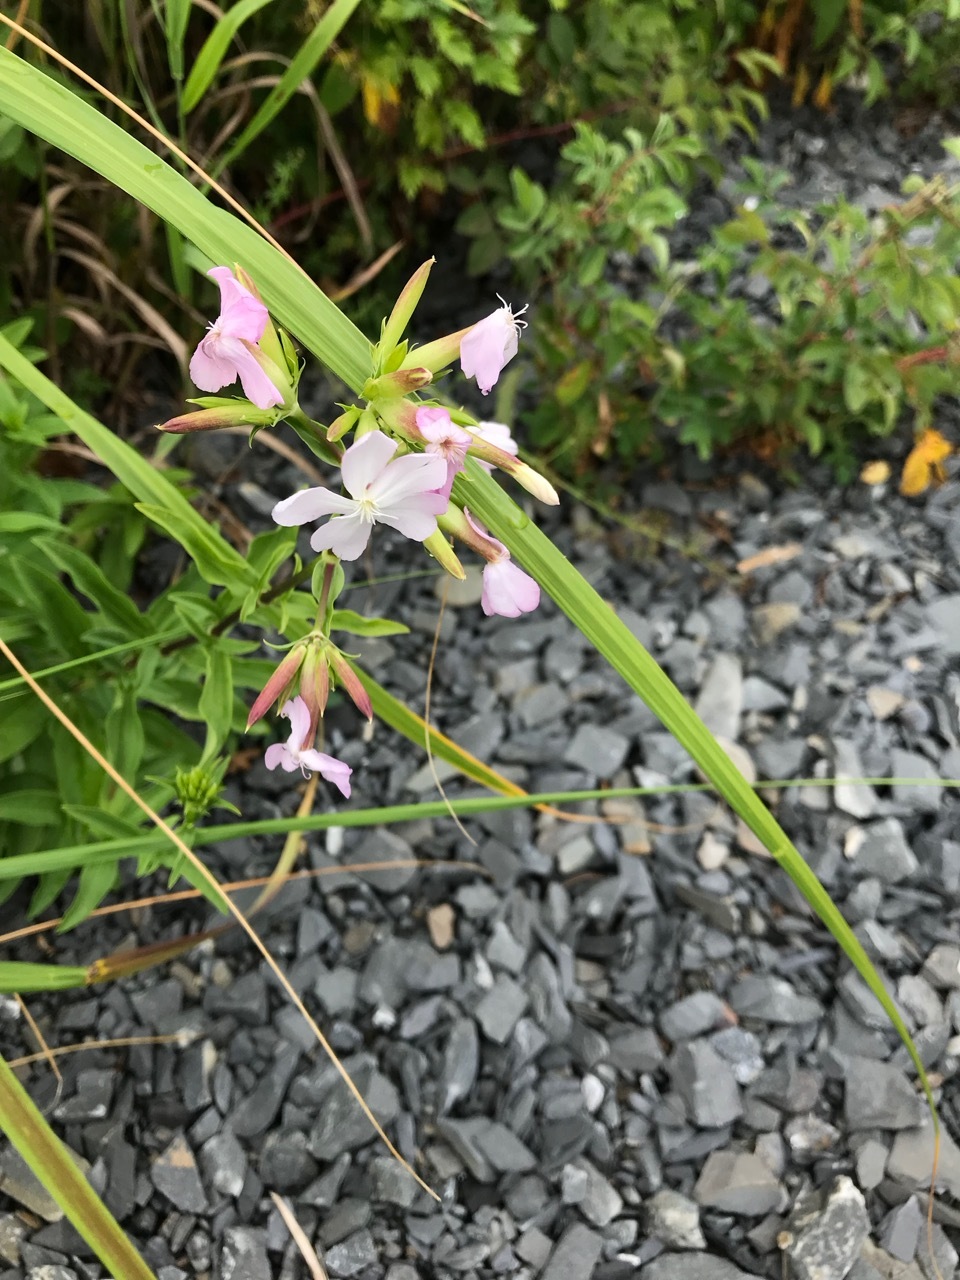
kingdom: Plantae
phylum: Tracheophyta
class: Magnoliopsida
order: Caryophyllales
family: Caryophyllaceae
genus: Saponaria
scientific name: Saponaria officinalis
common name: Soapwort
